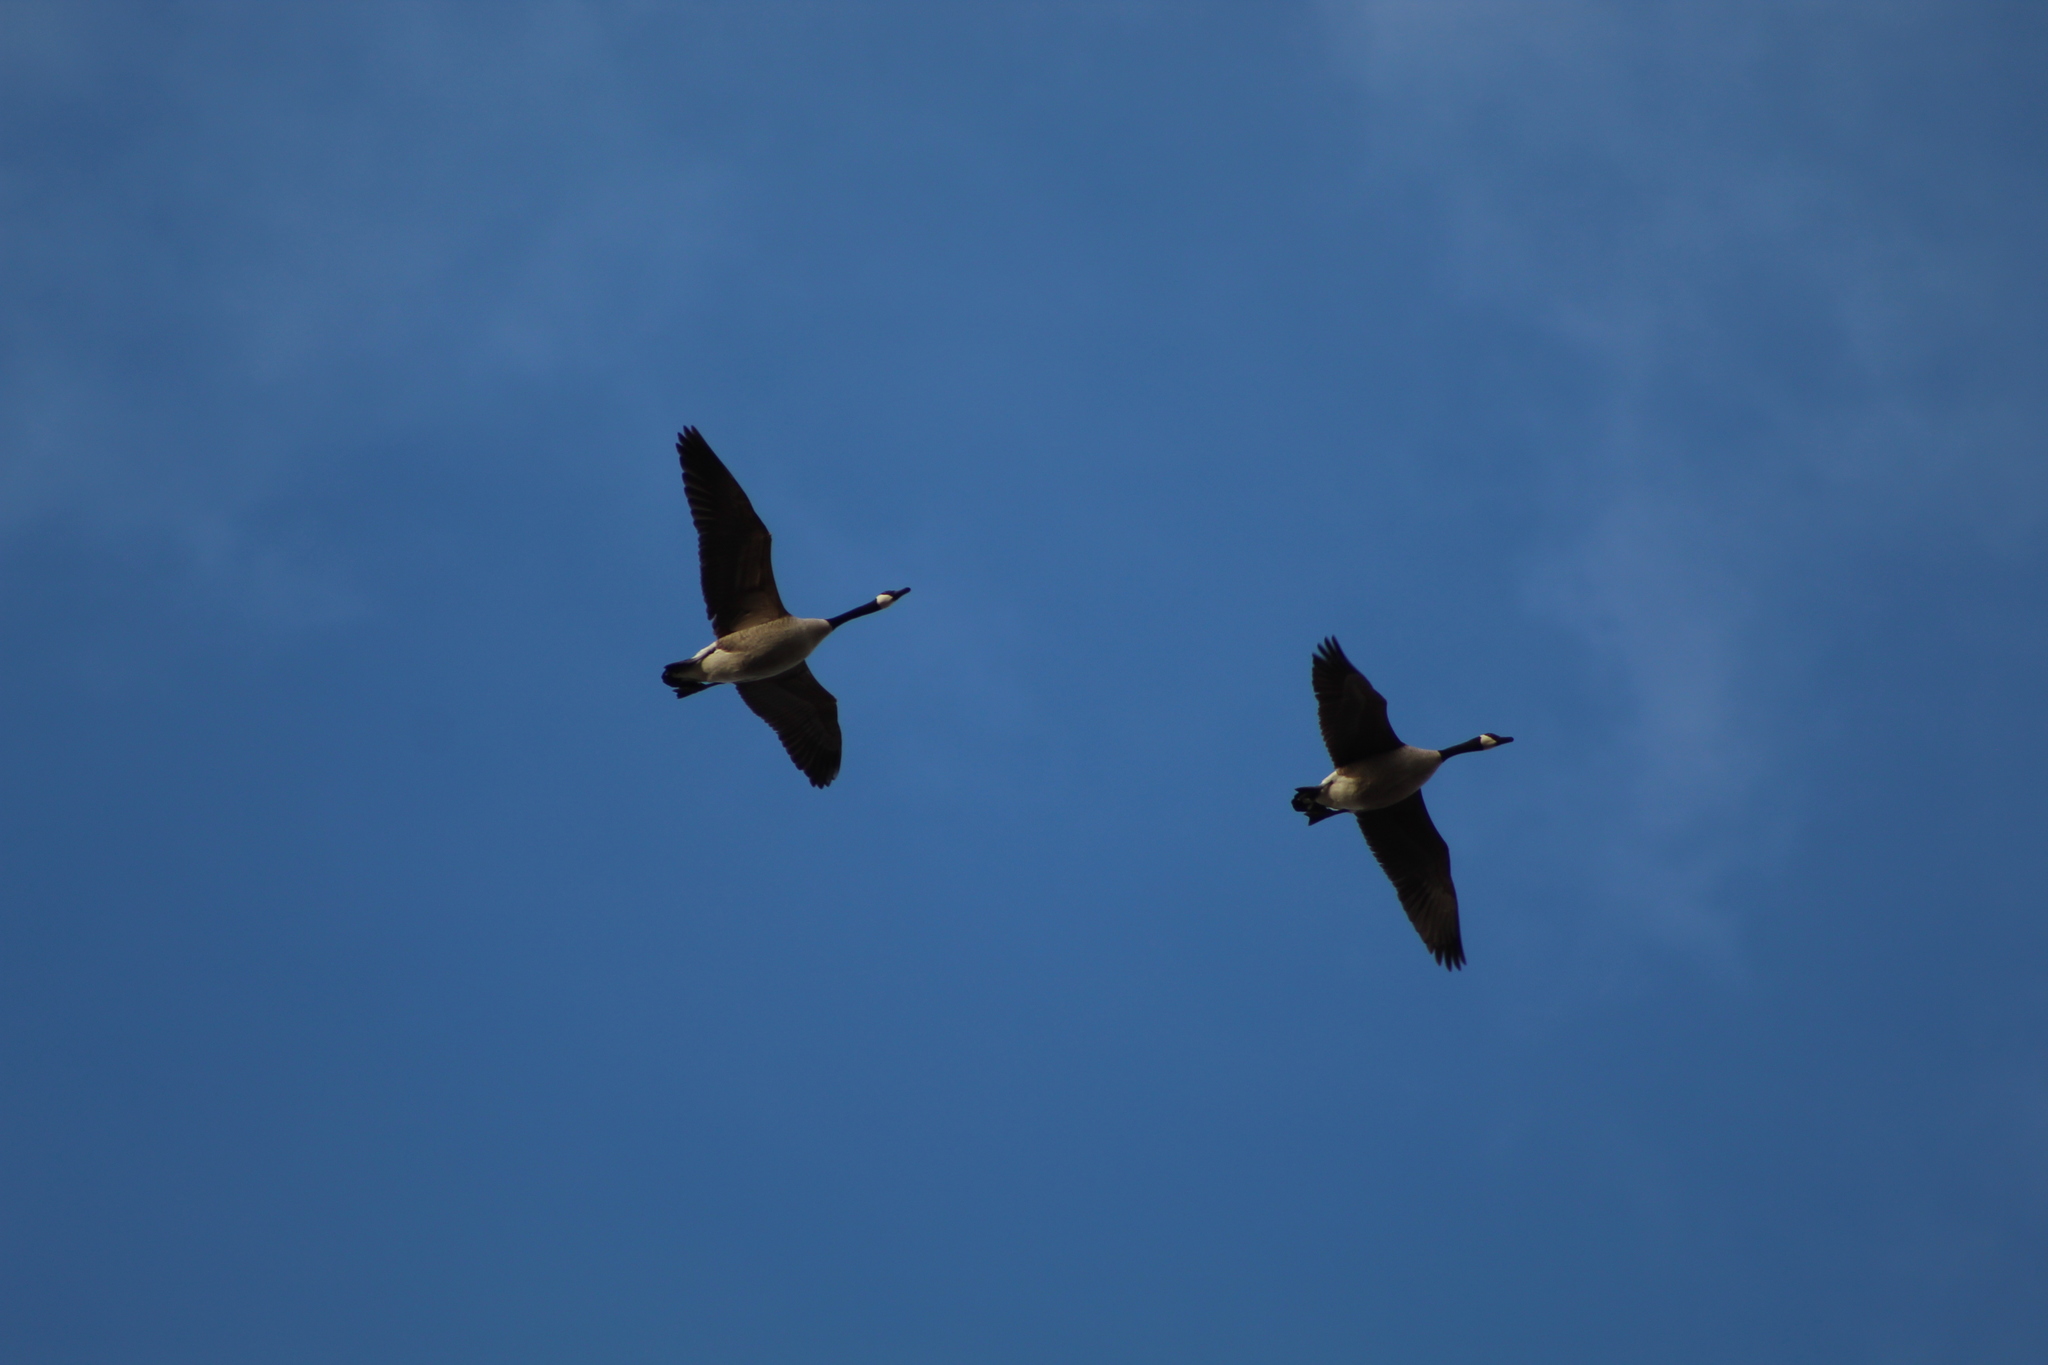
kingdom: Animalia
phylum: Chordata
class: Aves
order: Anseriformes
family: Anatidae
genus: Branta
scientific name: Branta canadensis
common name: Canada goose
